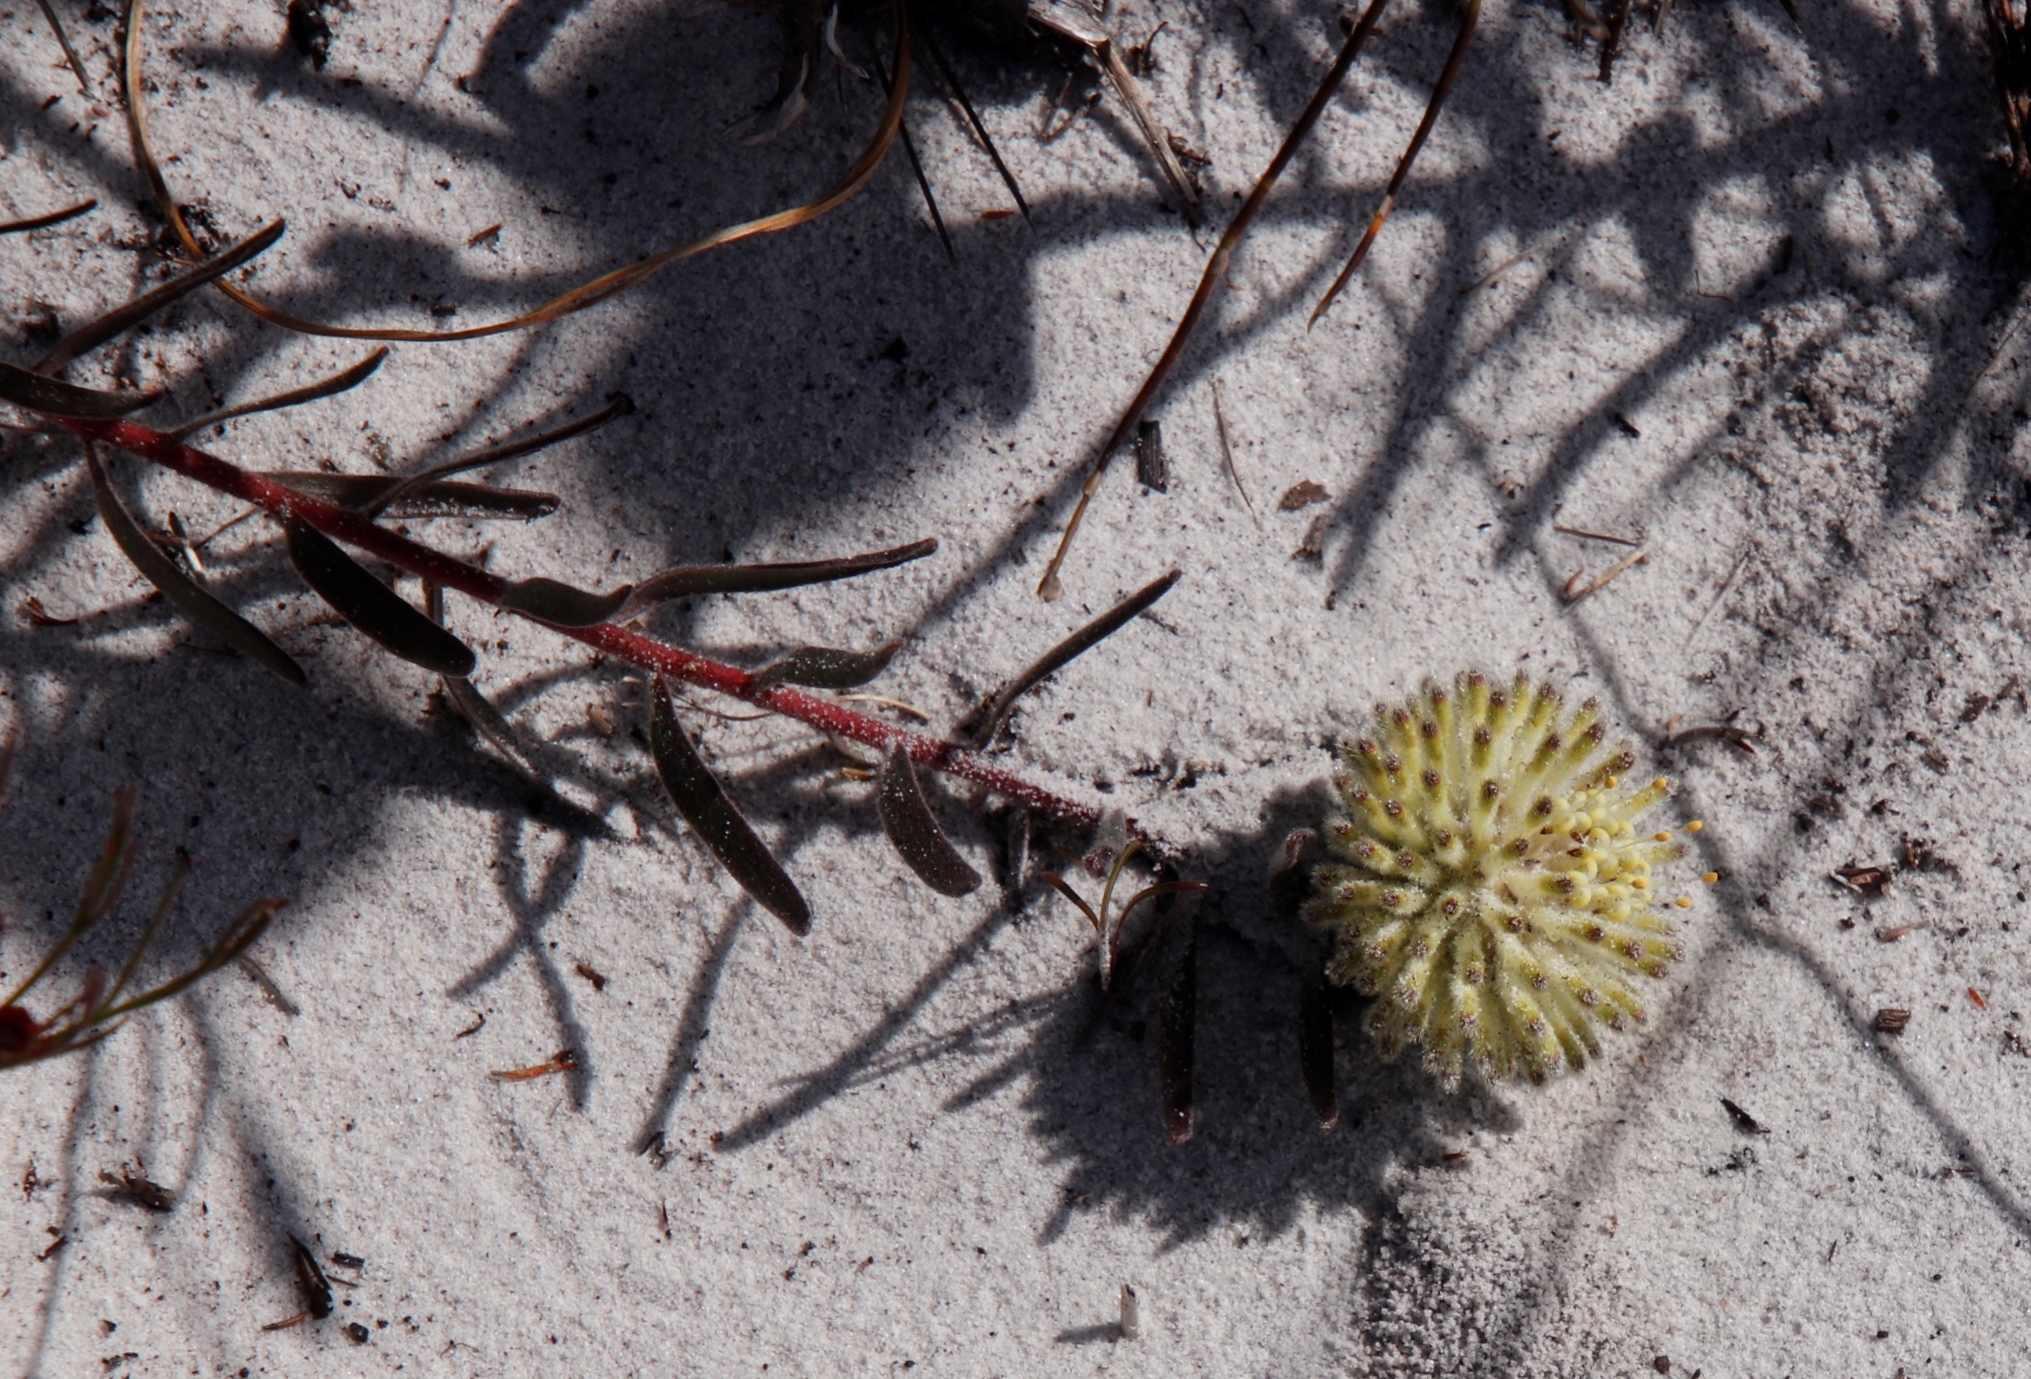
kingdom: Plantae
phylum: Tracheophyta
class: Magnoliopsida
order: Proteales
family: Proteaceae
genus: Leucospermum
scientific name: Leucospermum pedunculatum
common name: White-trailing pincushion
